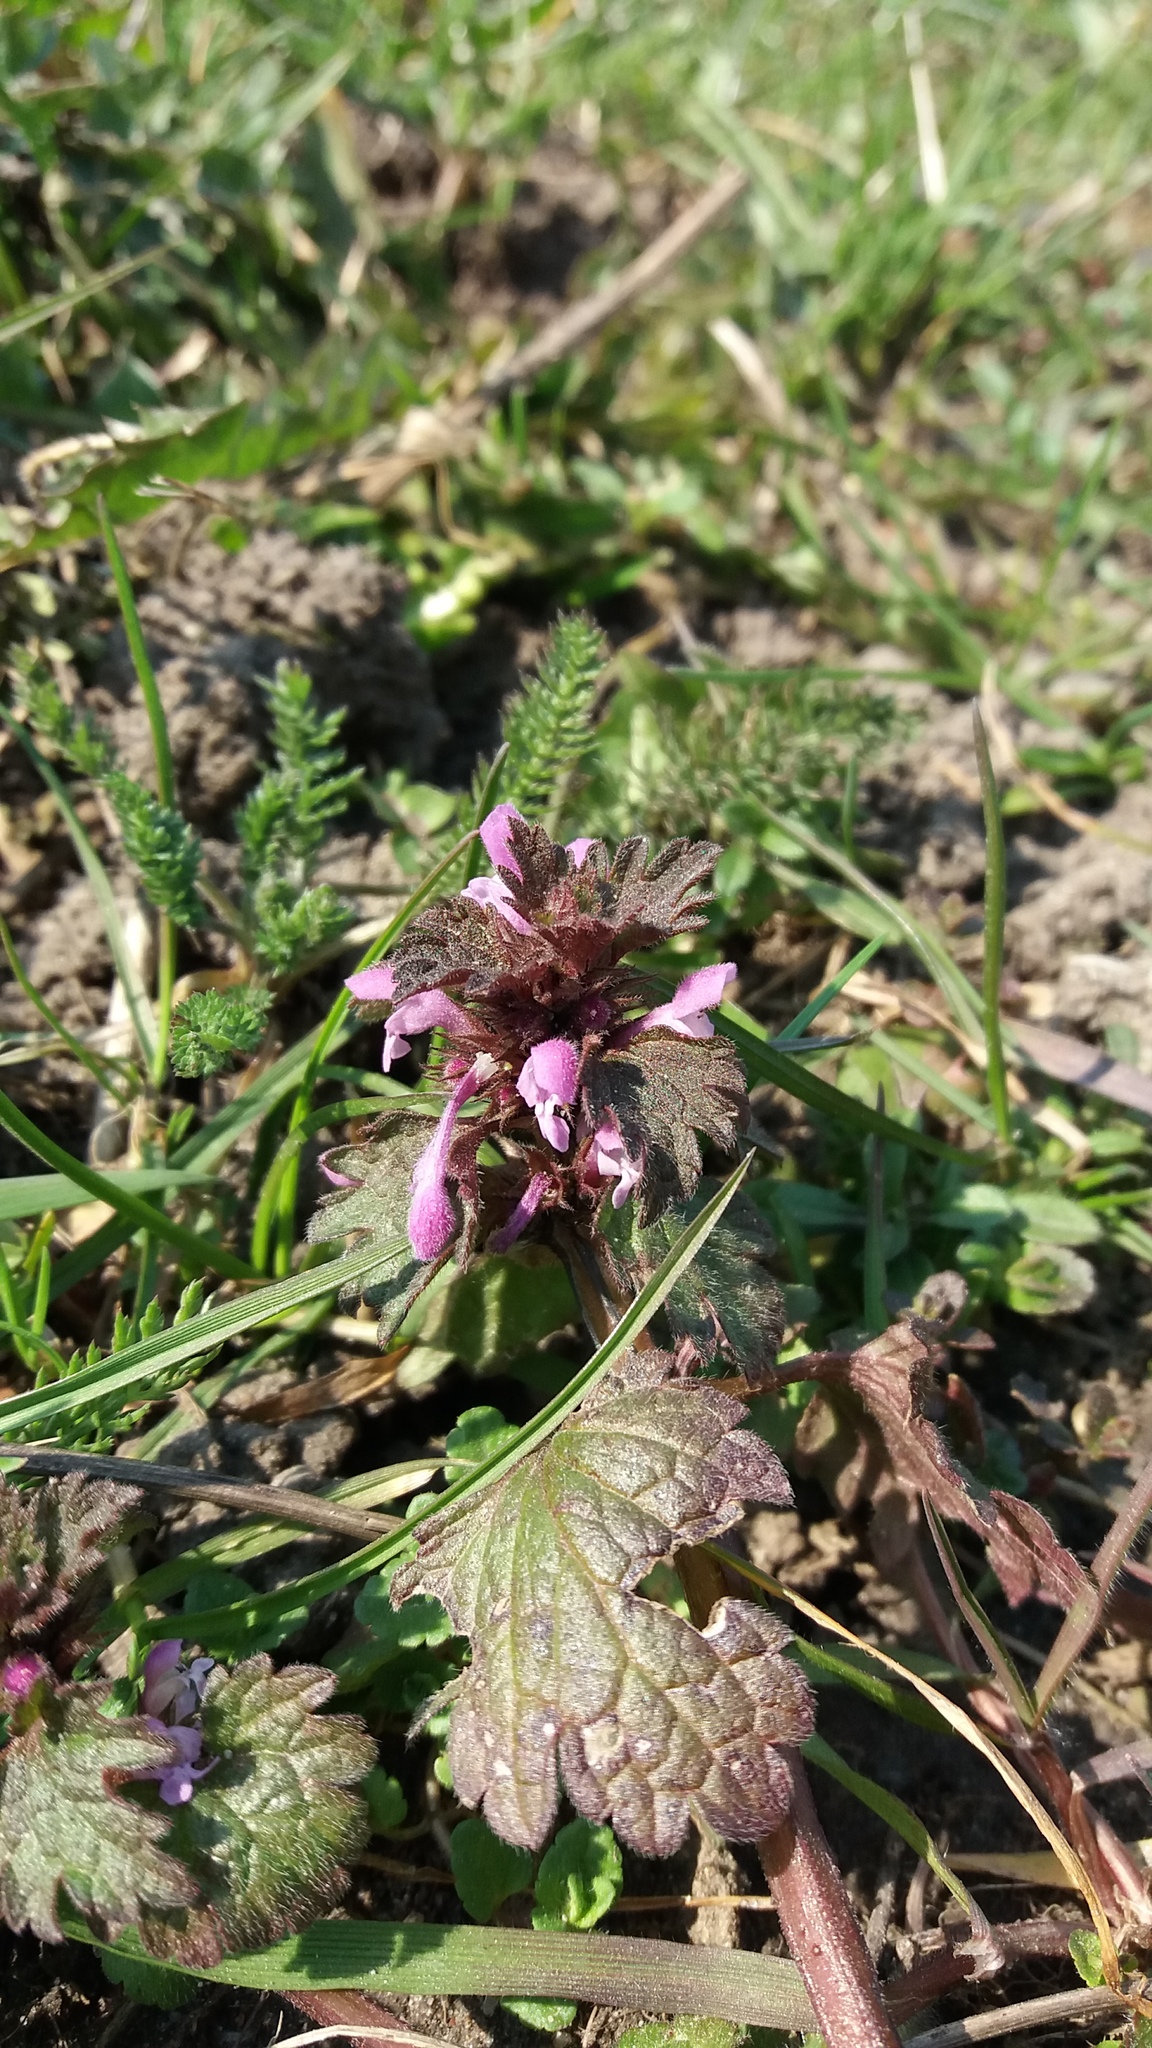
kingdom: Plantae
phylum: Tracheophyta
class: Magnoliopsida
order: Lamiales
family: Lamiaceae
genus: Lamium
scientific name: Lamium purpureum
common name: Red dead-nettle
